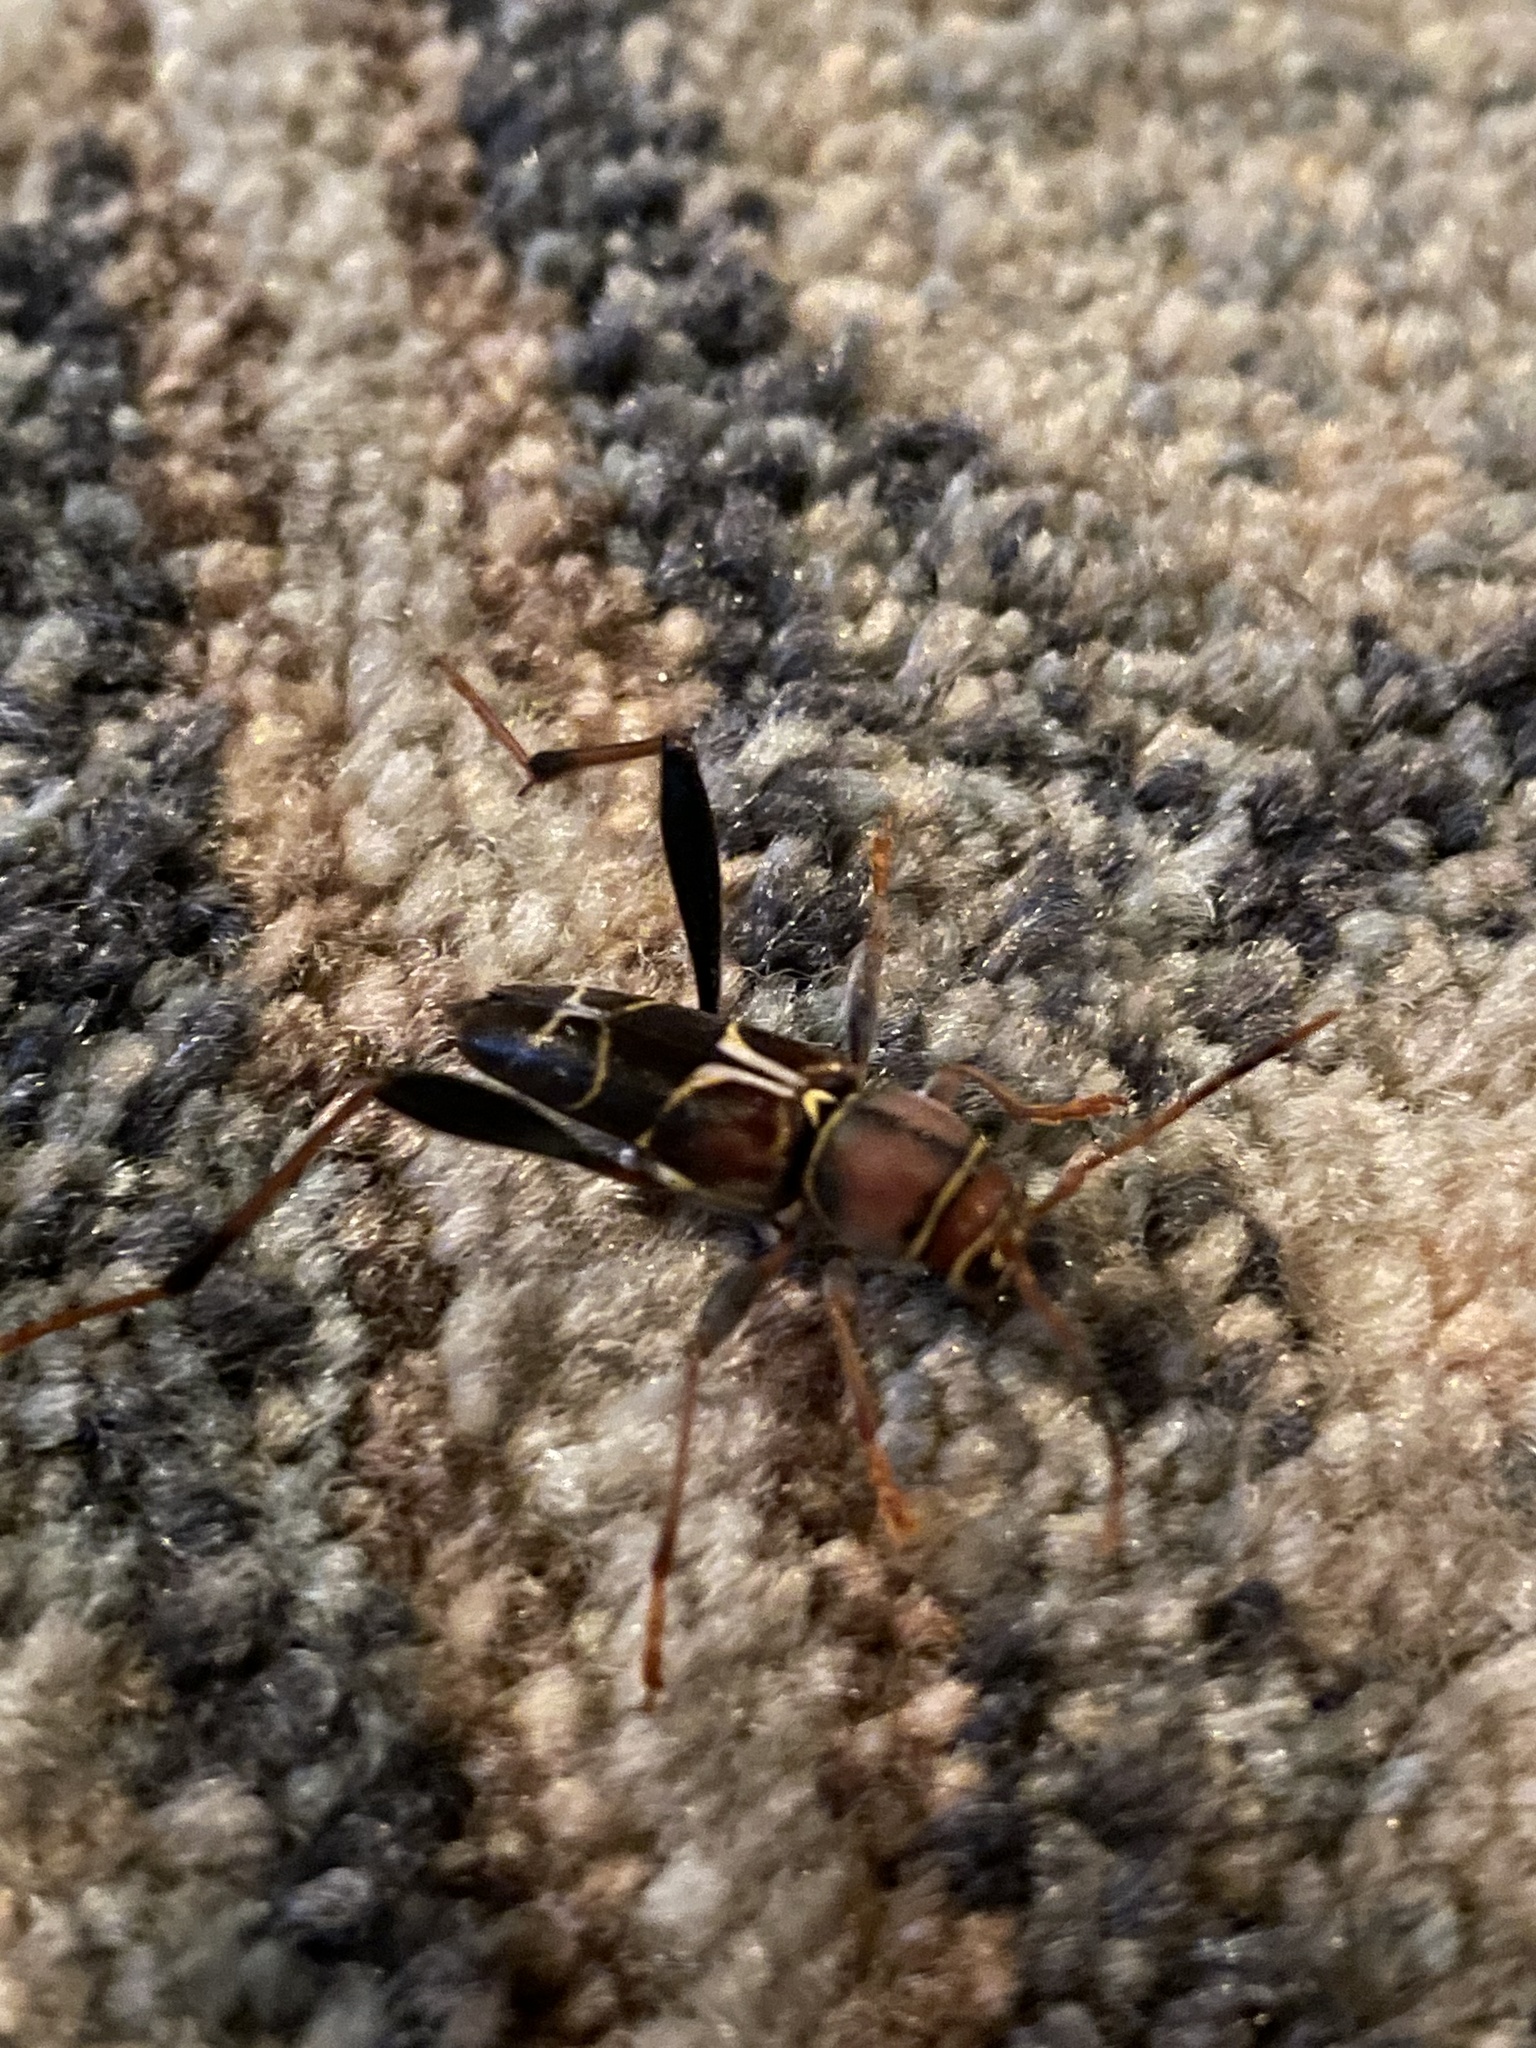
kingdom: Animalia
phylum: Arthropoda
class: Insecta
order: Coleoptera
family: Cerambycidae
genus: Neoclytus
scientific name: Neoclytus mucronatus
